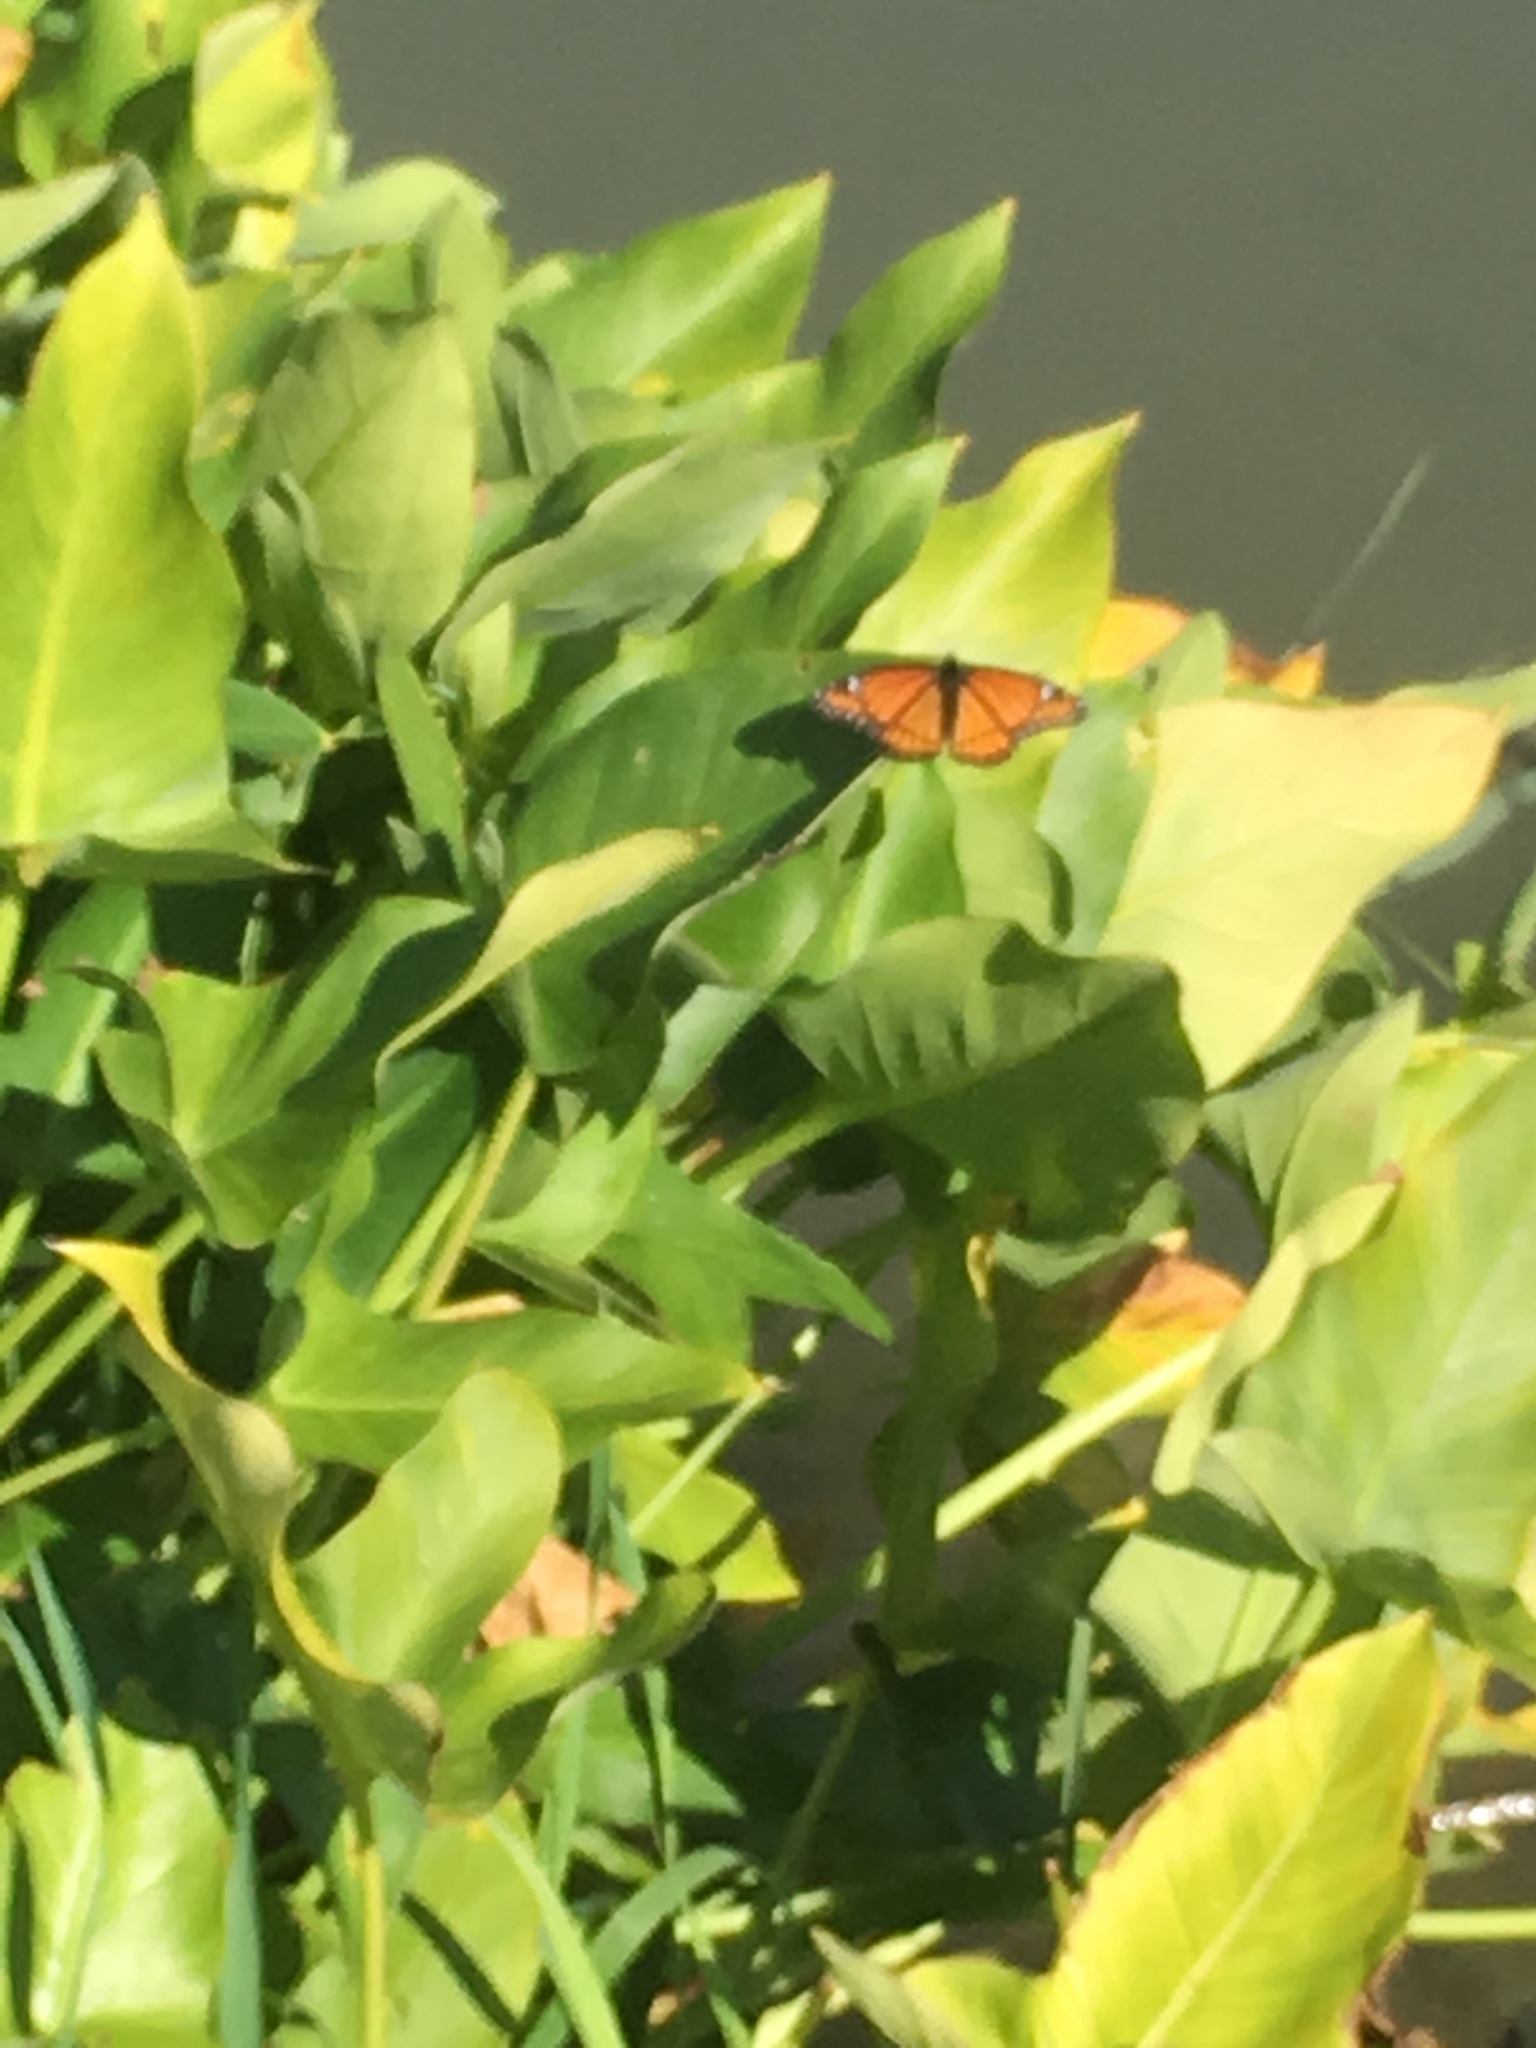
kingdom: Animalia
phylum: Arthropoda
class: Insecta
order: Lepidoptera
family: Nymphalidae
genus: Limenitis
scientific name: Limenitis archippus
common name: Viceroy
